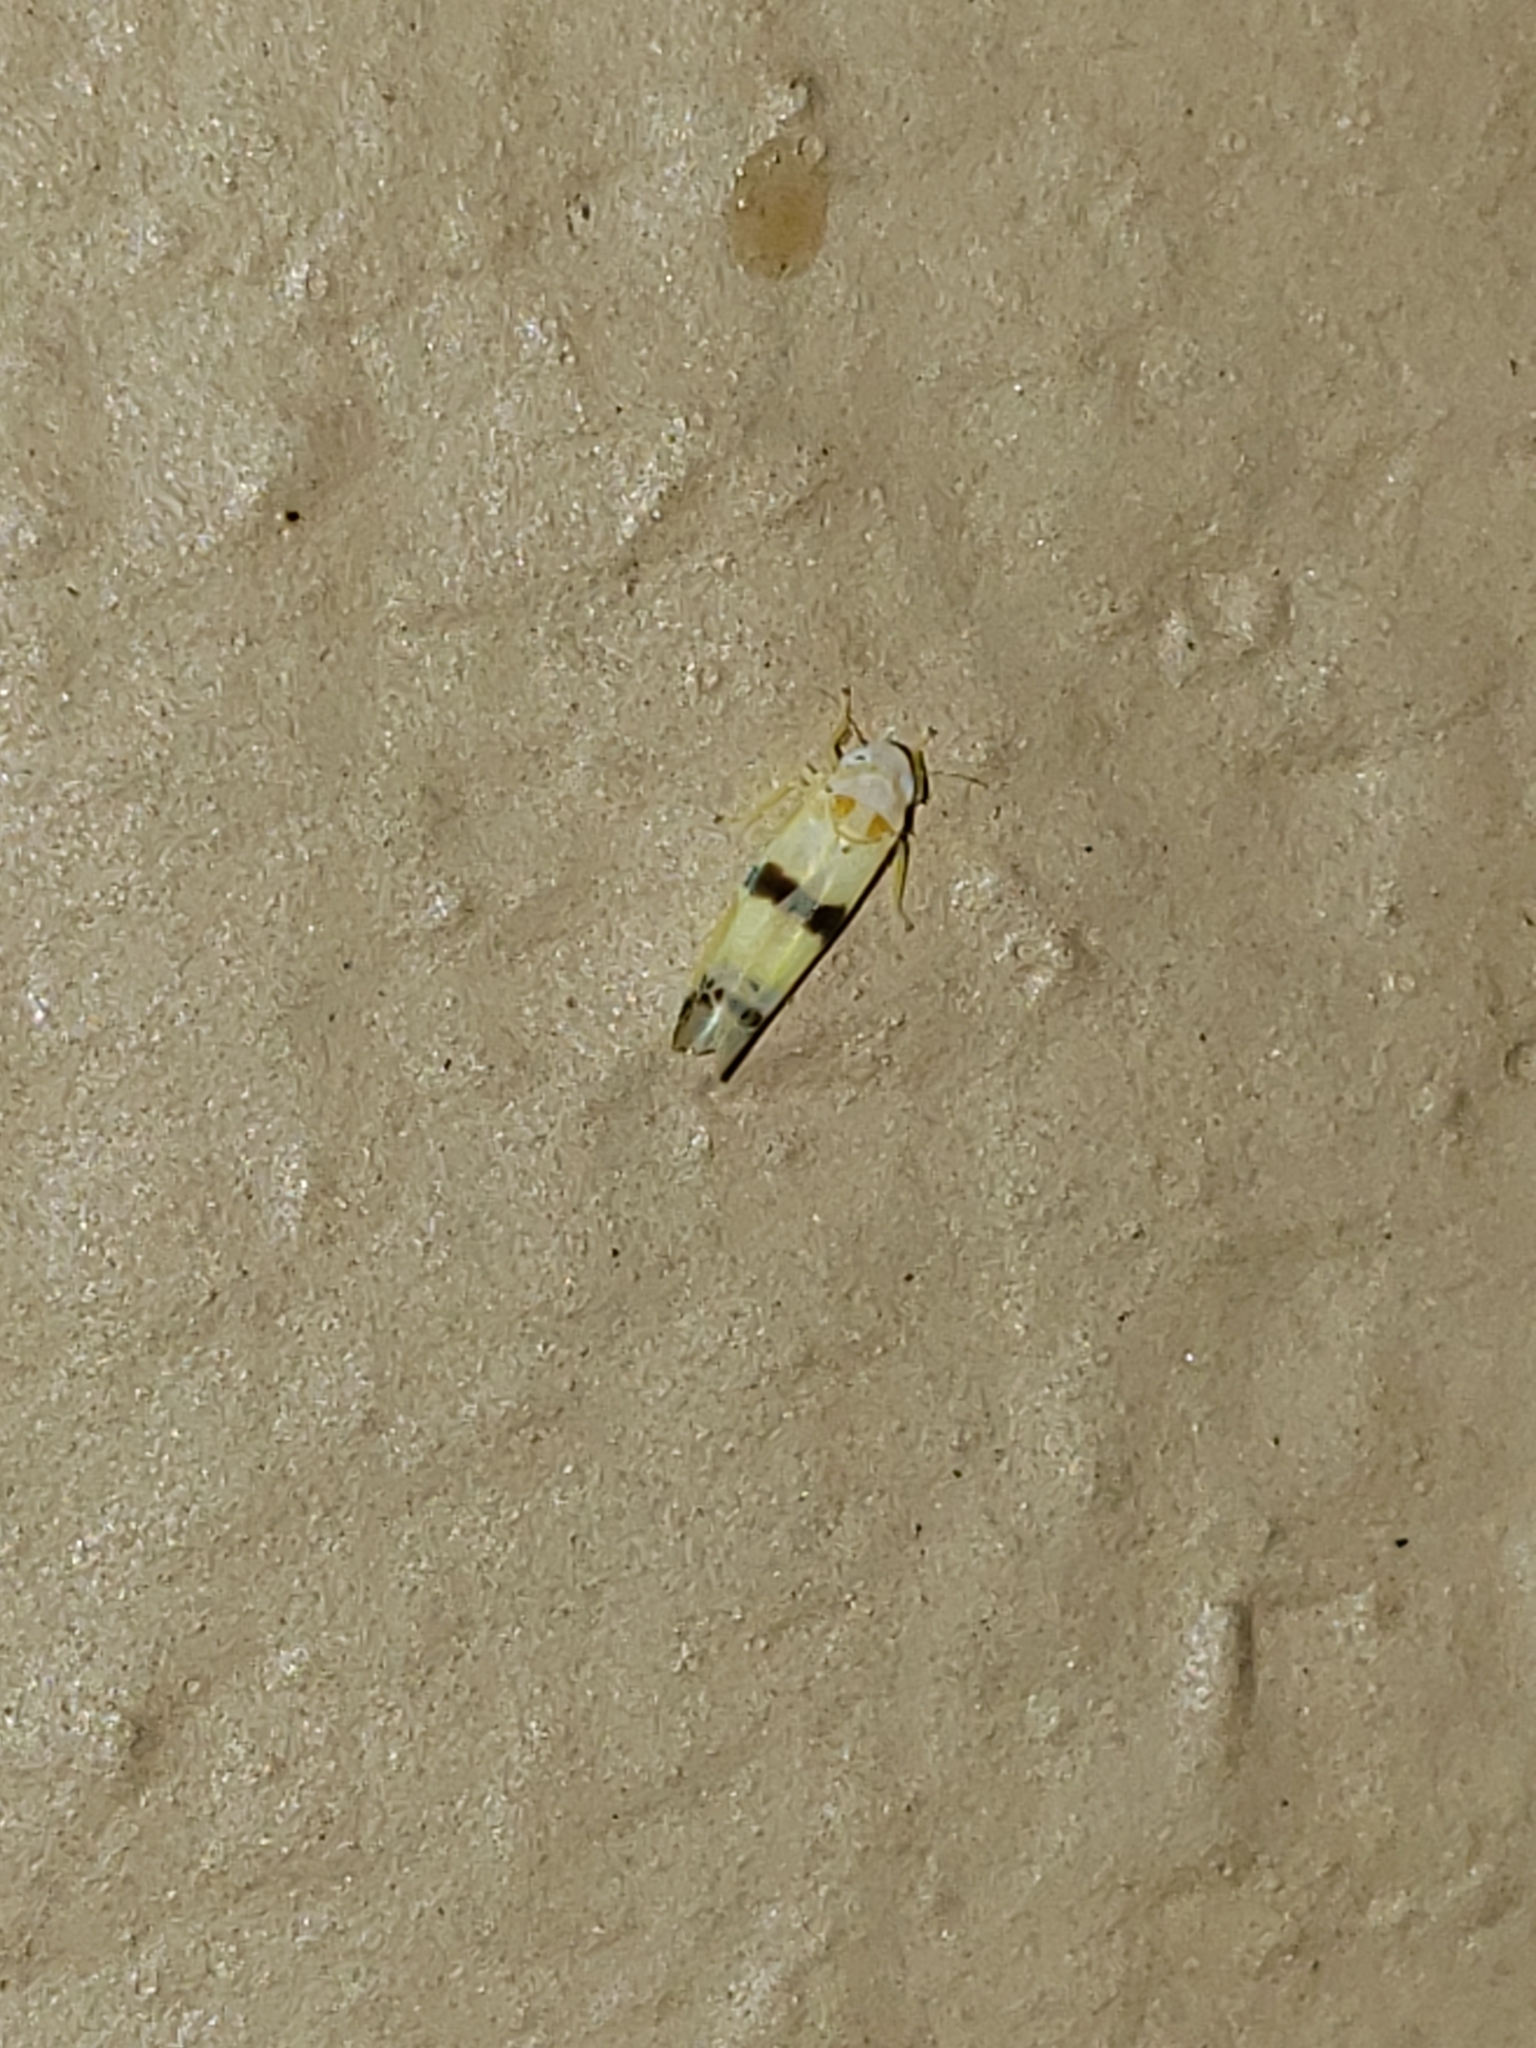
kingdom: Animalia
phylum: Arthropoda
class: Insecta
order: Hemiptera
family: Cicadellidae
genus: Empoa
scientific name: Empoa gillettei
